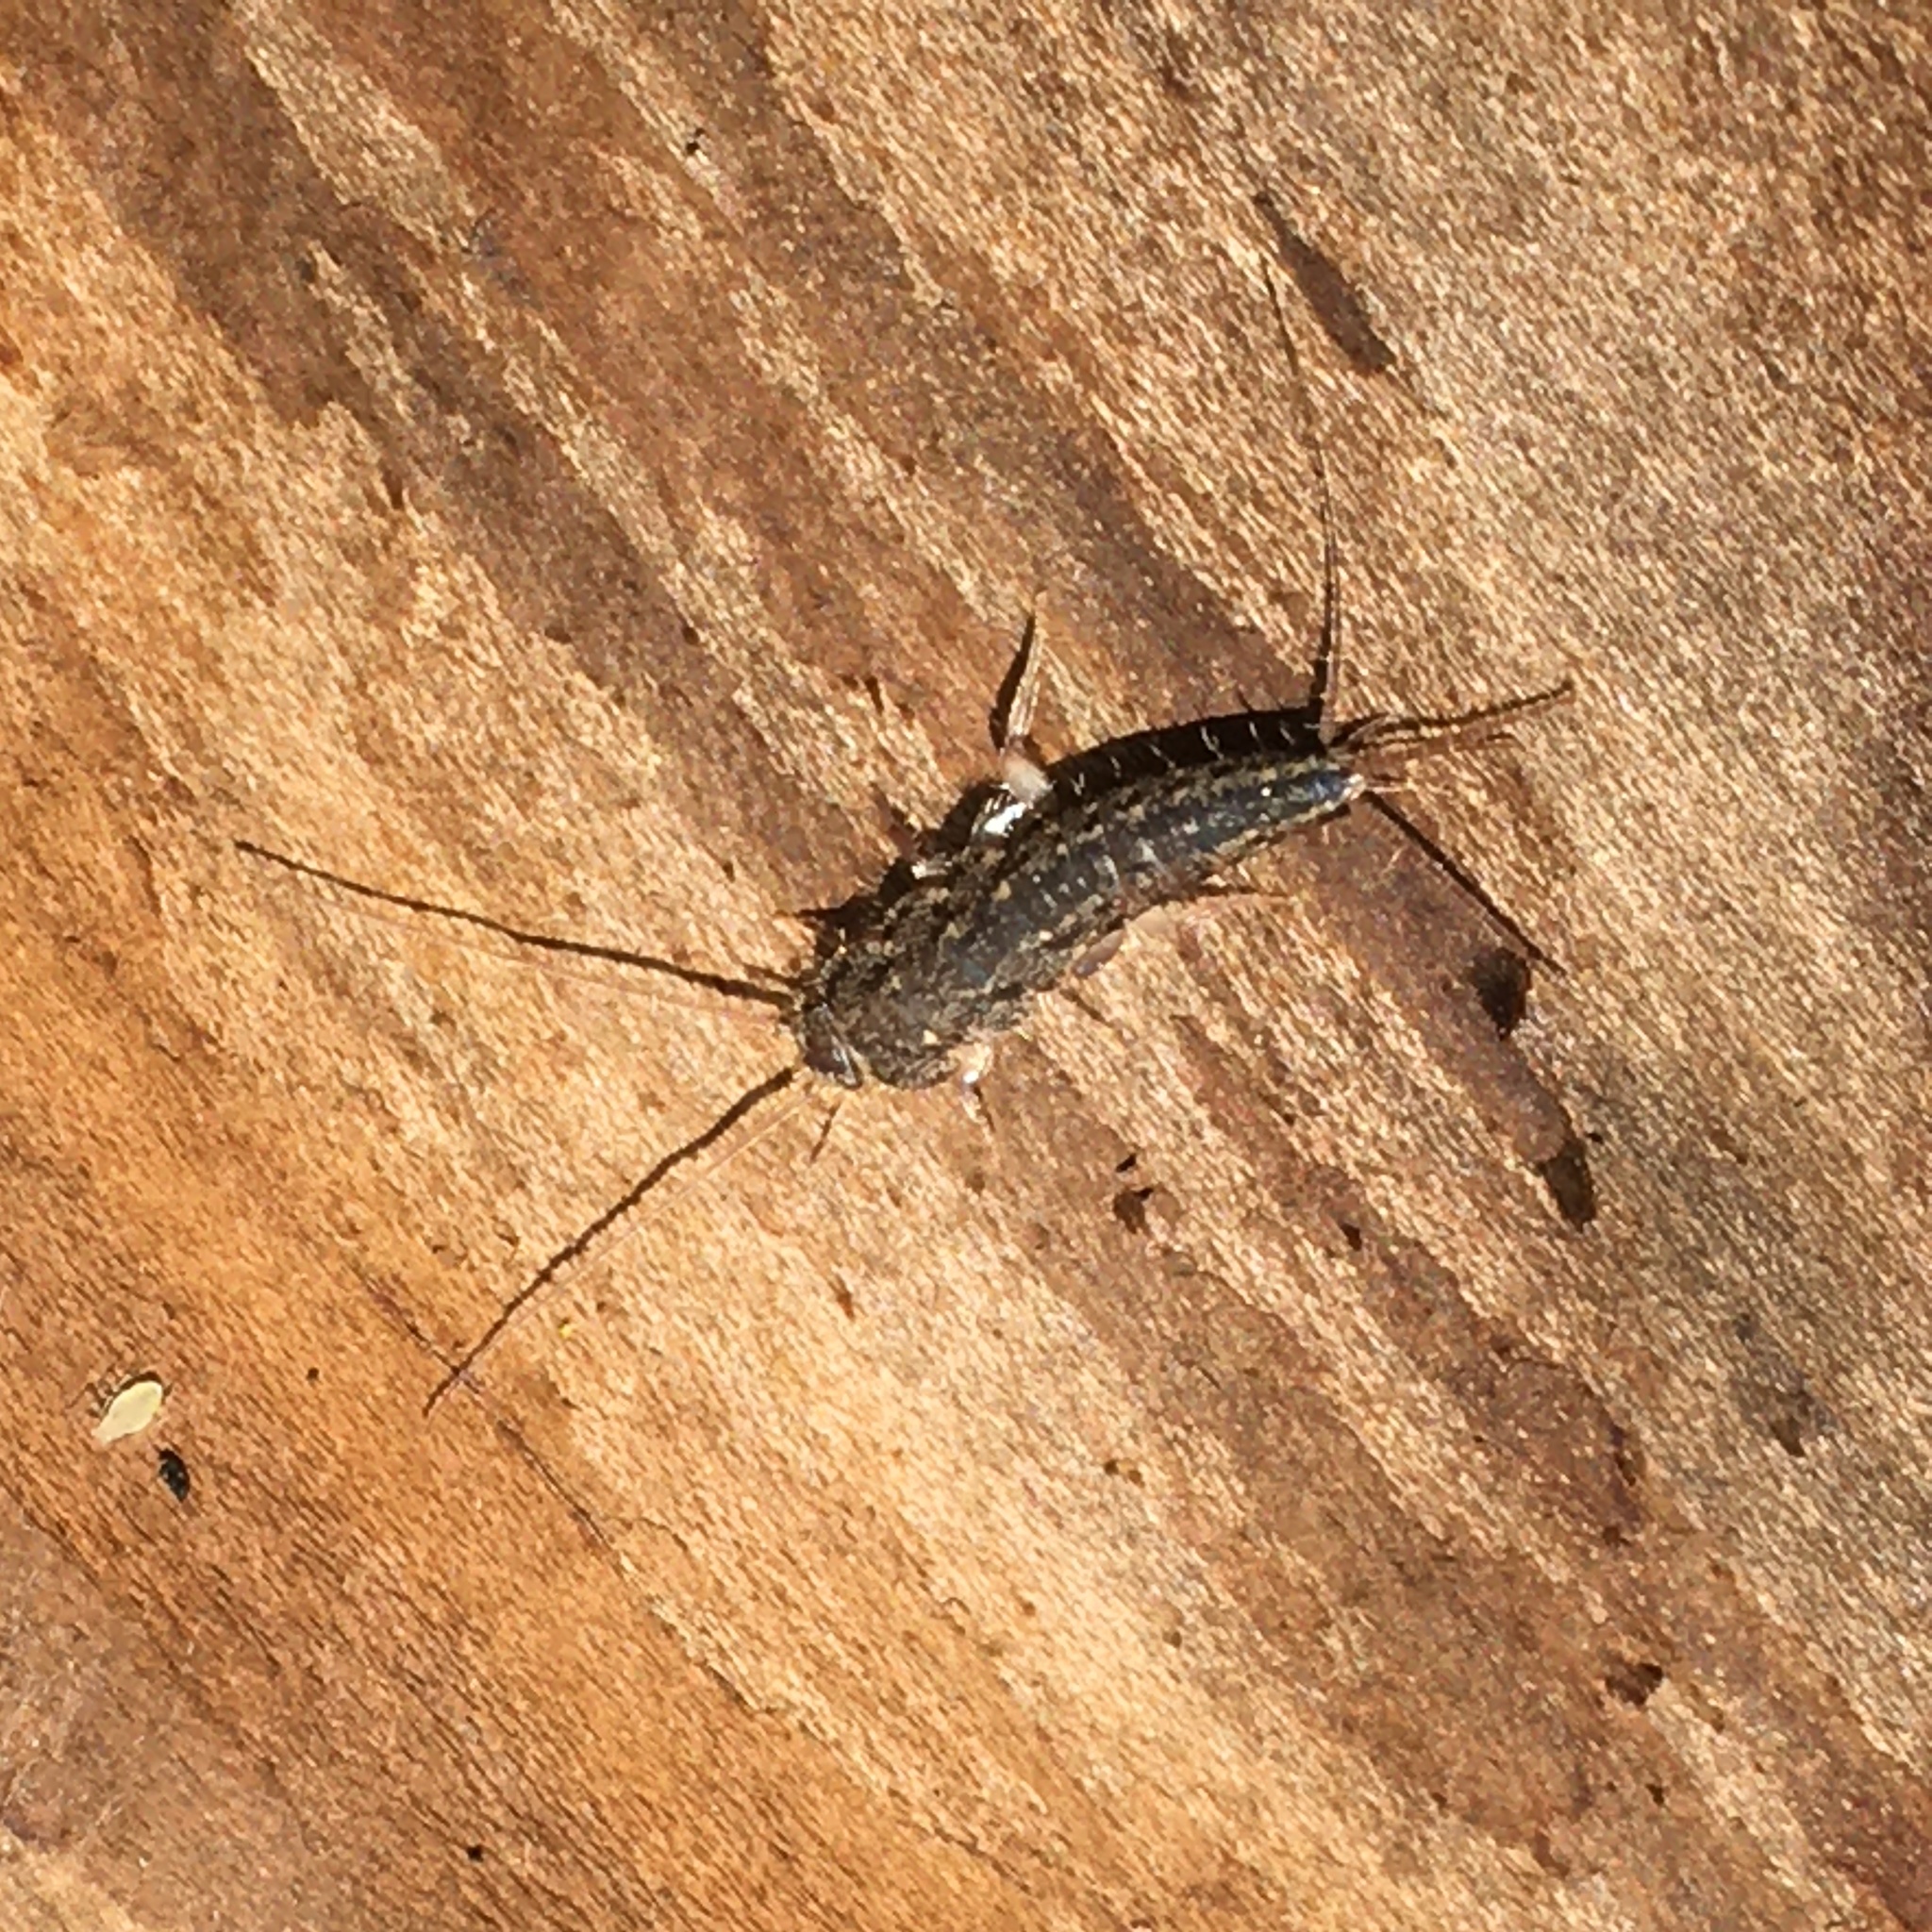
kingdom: Animalia
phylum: Arthropoda
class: Insecta
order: Zygentoma
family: Lepismatidae
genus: Ctenolepisma
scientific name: Ctenolepisma lineata
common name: Four-lined silverfish
